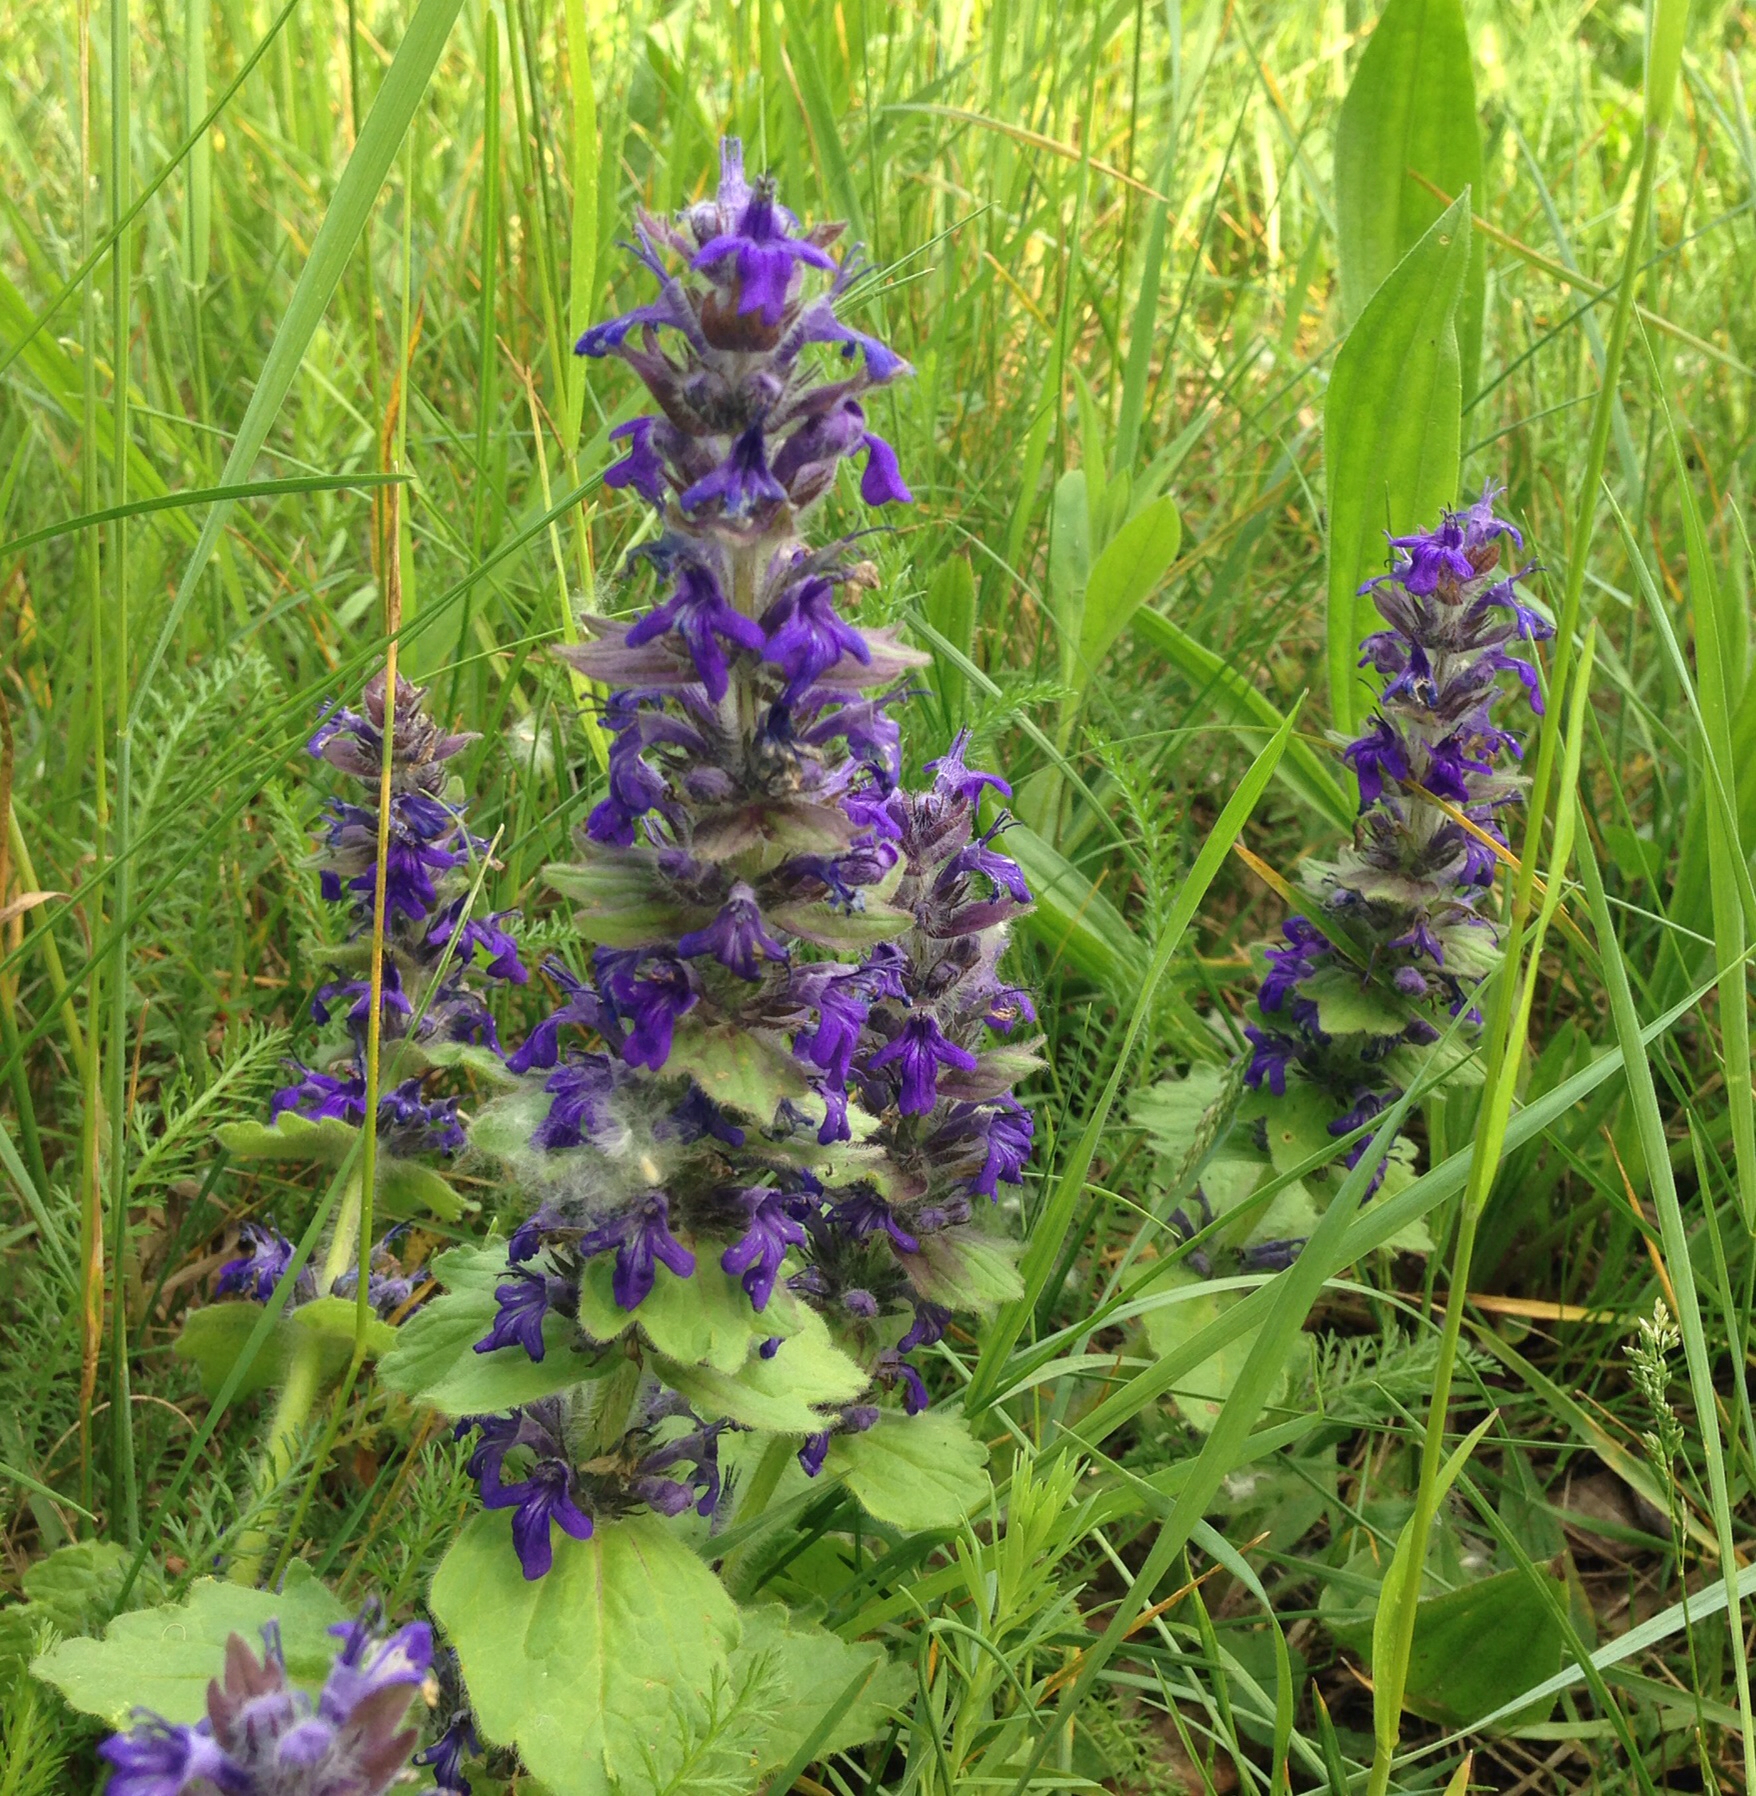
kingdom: Plantae
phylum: Tracheophyta
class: Magnoliopsida
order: Lamiales
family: Lamiaceae
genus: Ajuga
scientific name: Ajuga genevensis
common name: Blue bugle
